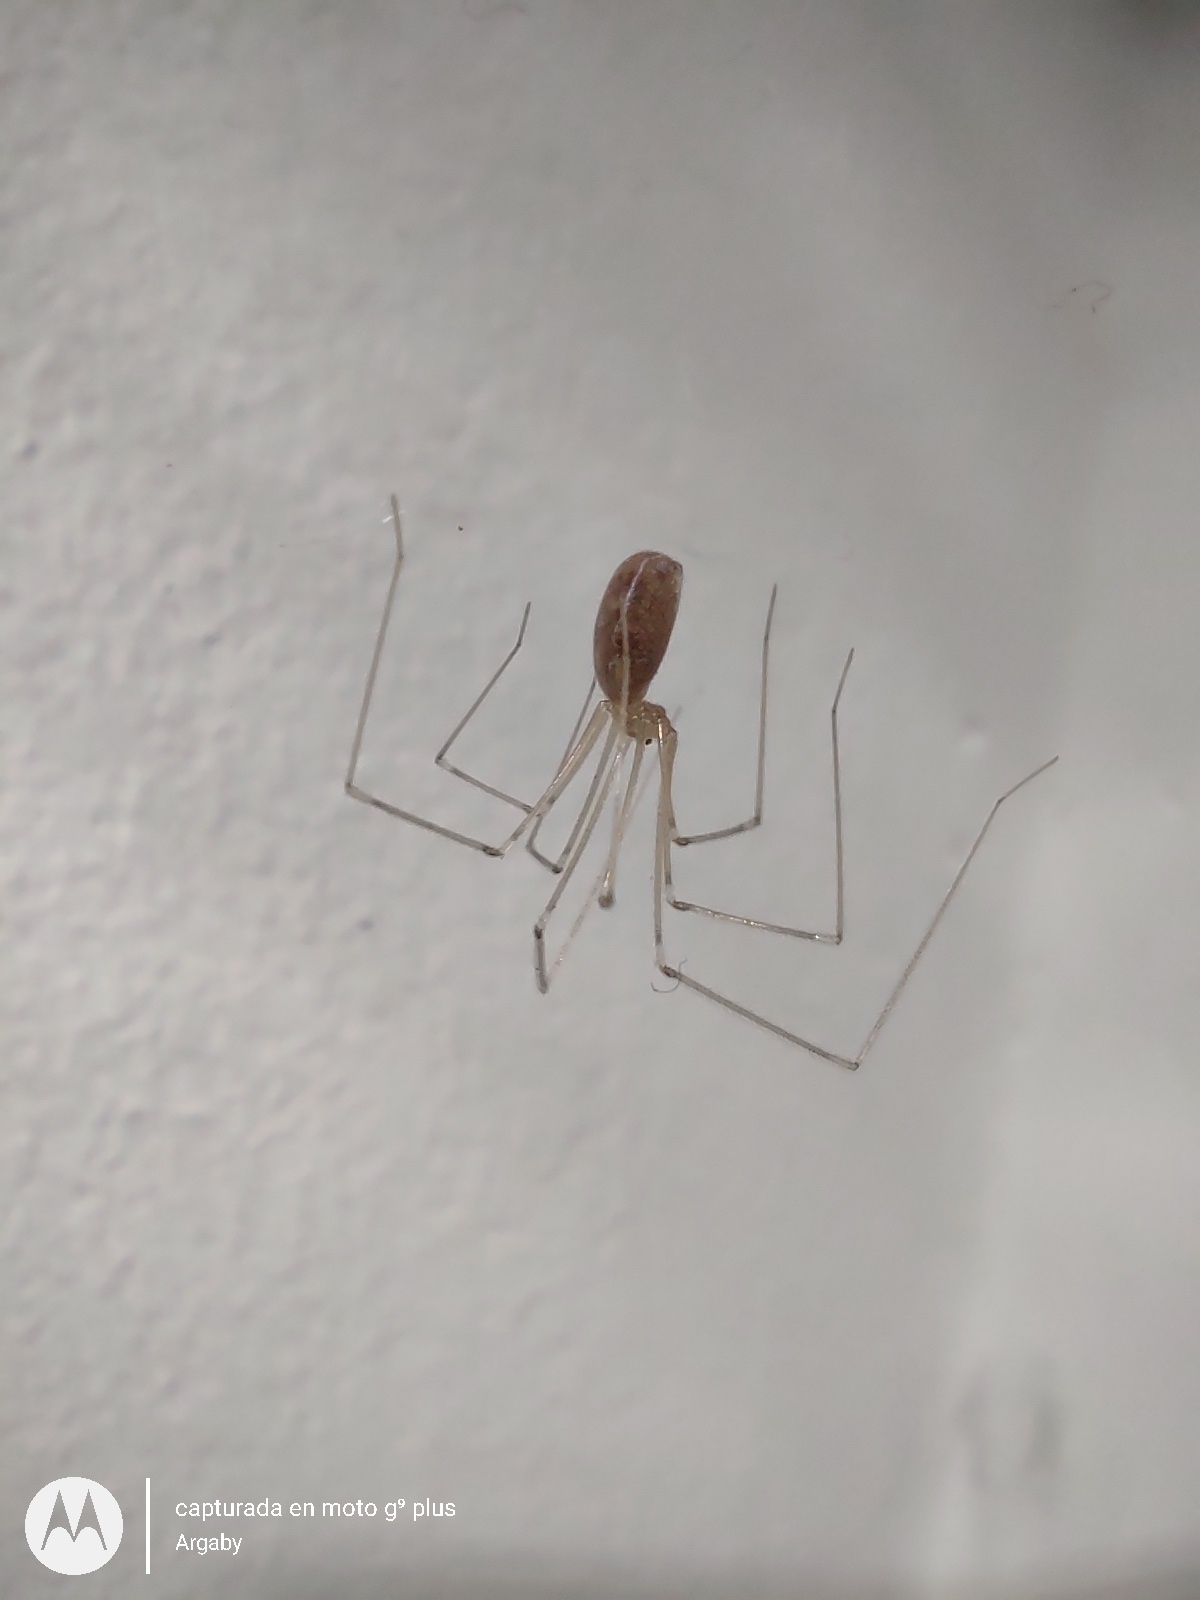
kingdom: Animalia
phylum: Arthropoda
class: Arachnida
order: Araneae
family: Pholcidae
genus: Pholcus
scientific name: Pholcus phalangioides
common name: Longbodied cellar spider
